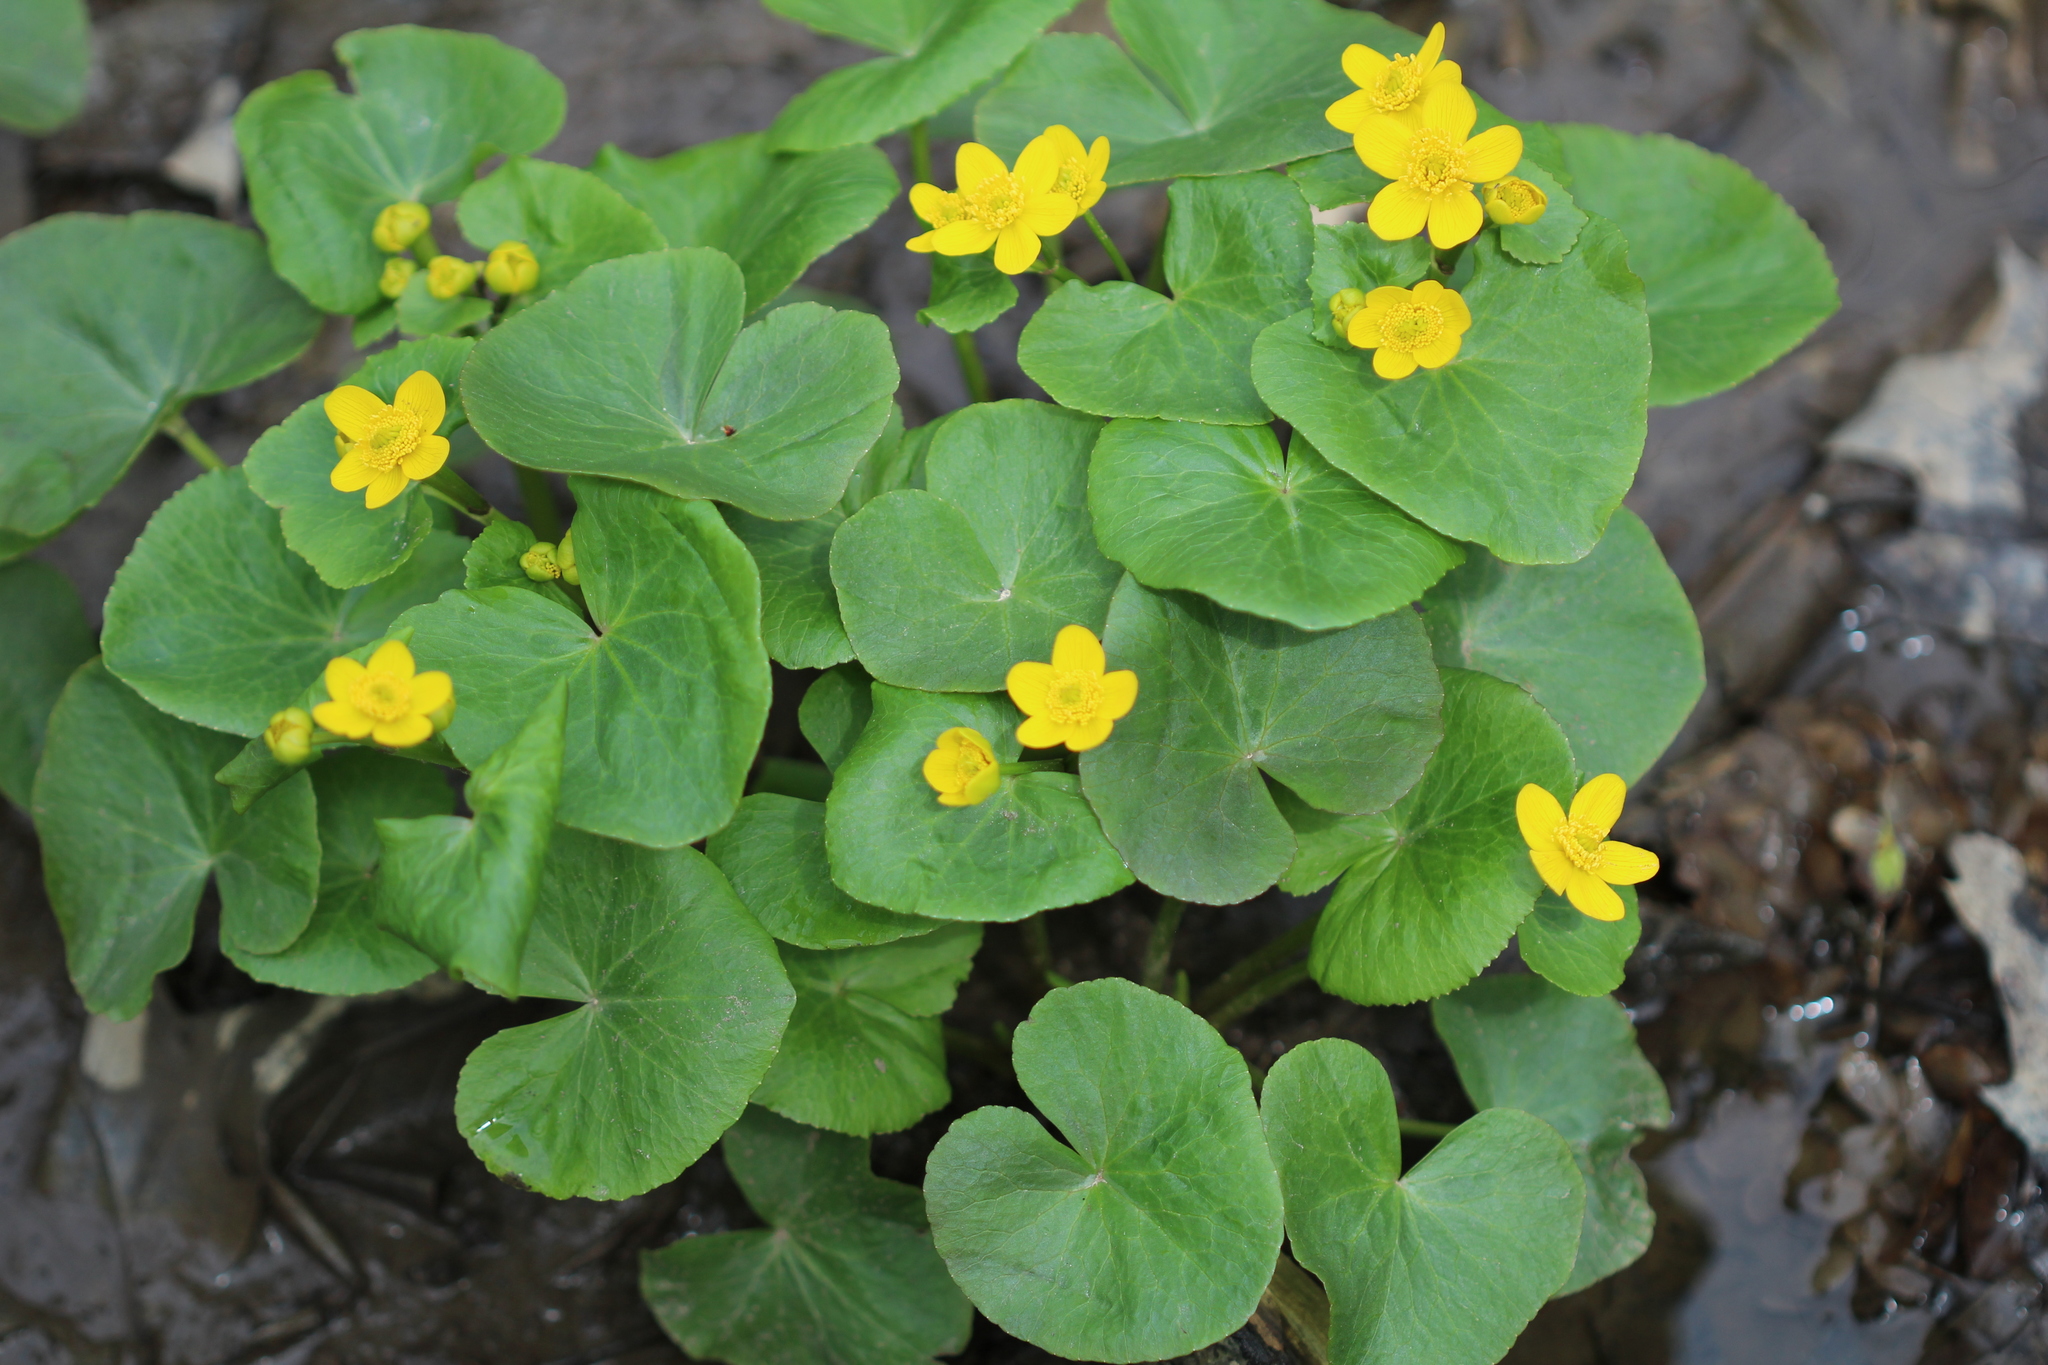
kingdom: Plantae
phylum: Tracheophyta
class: Magnoliopsida
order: Ranunculales
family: Ranunculaceae
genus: Caltha
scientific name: Caltha palustris
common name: Marsh marigold
